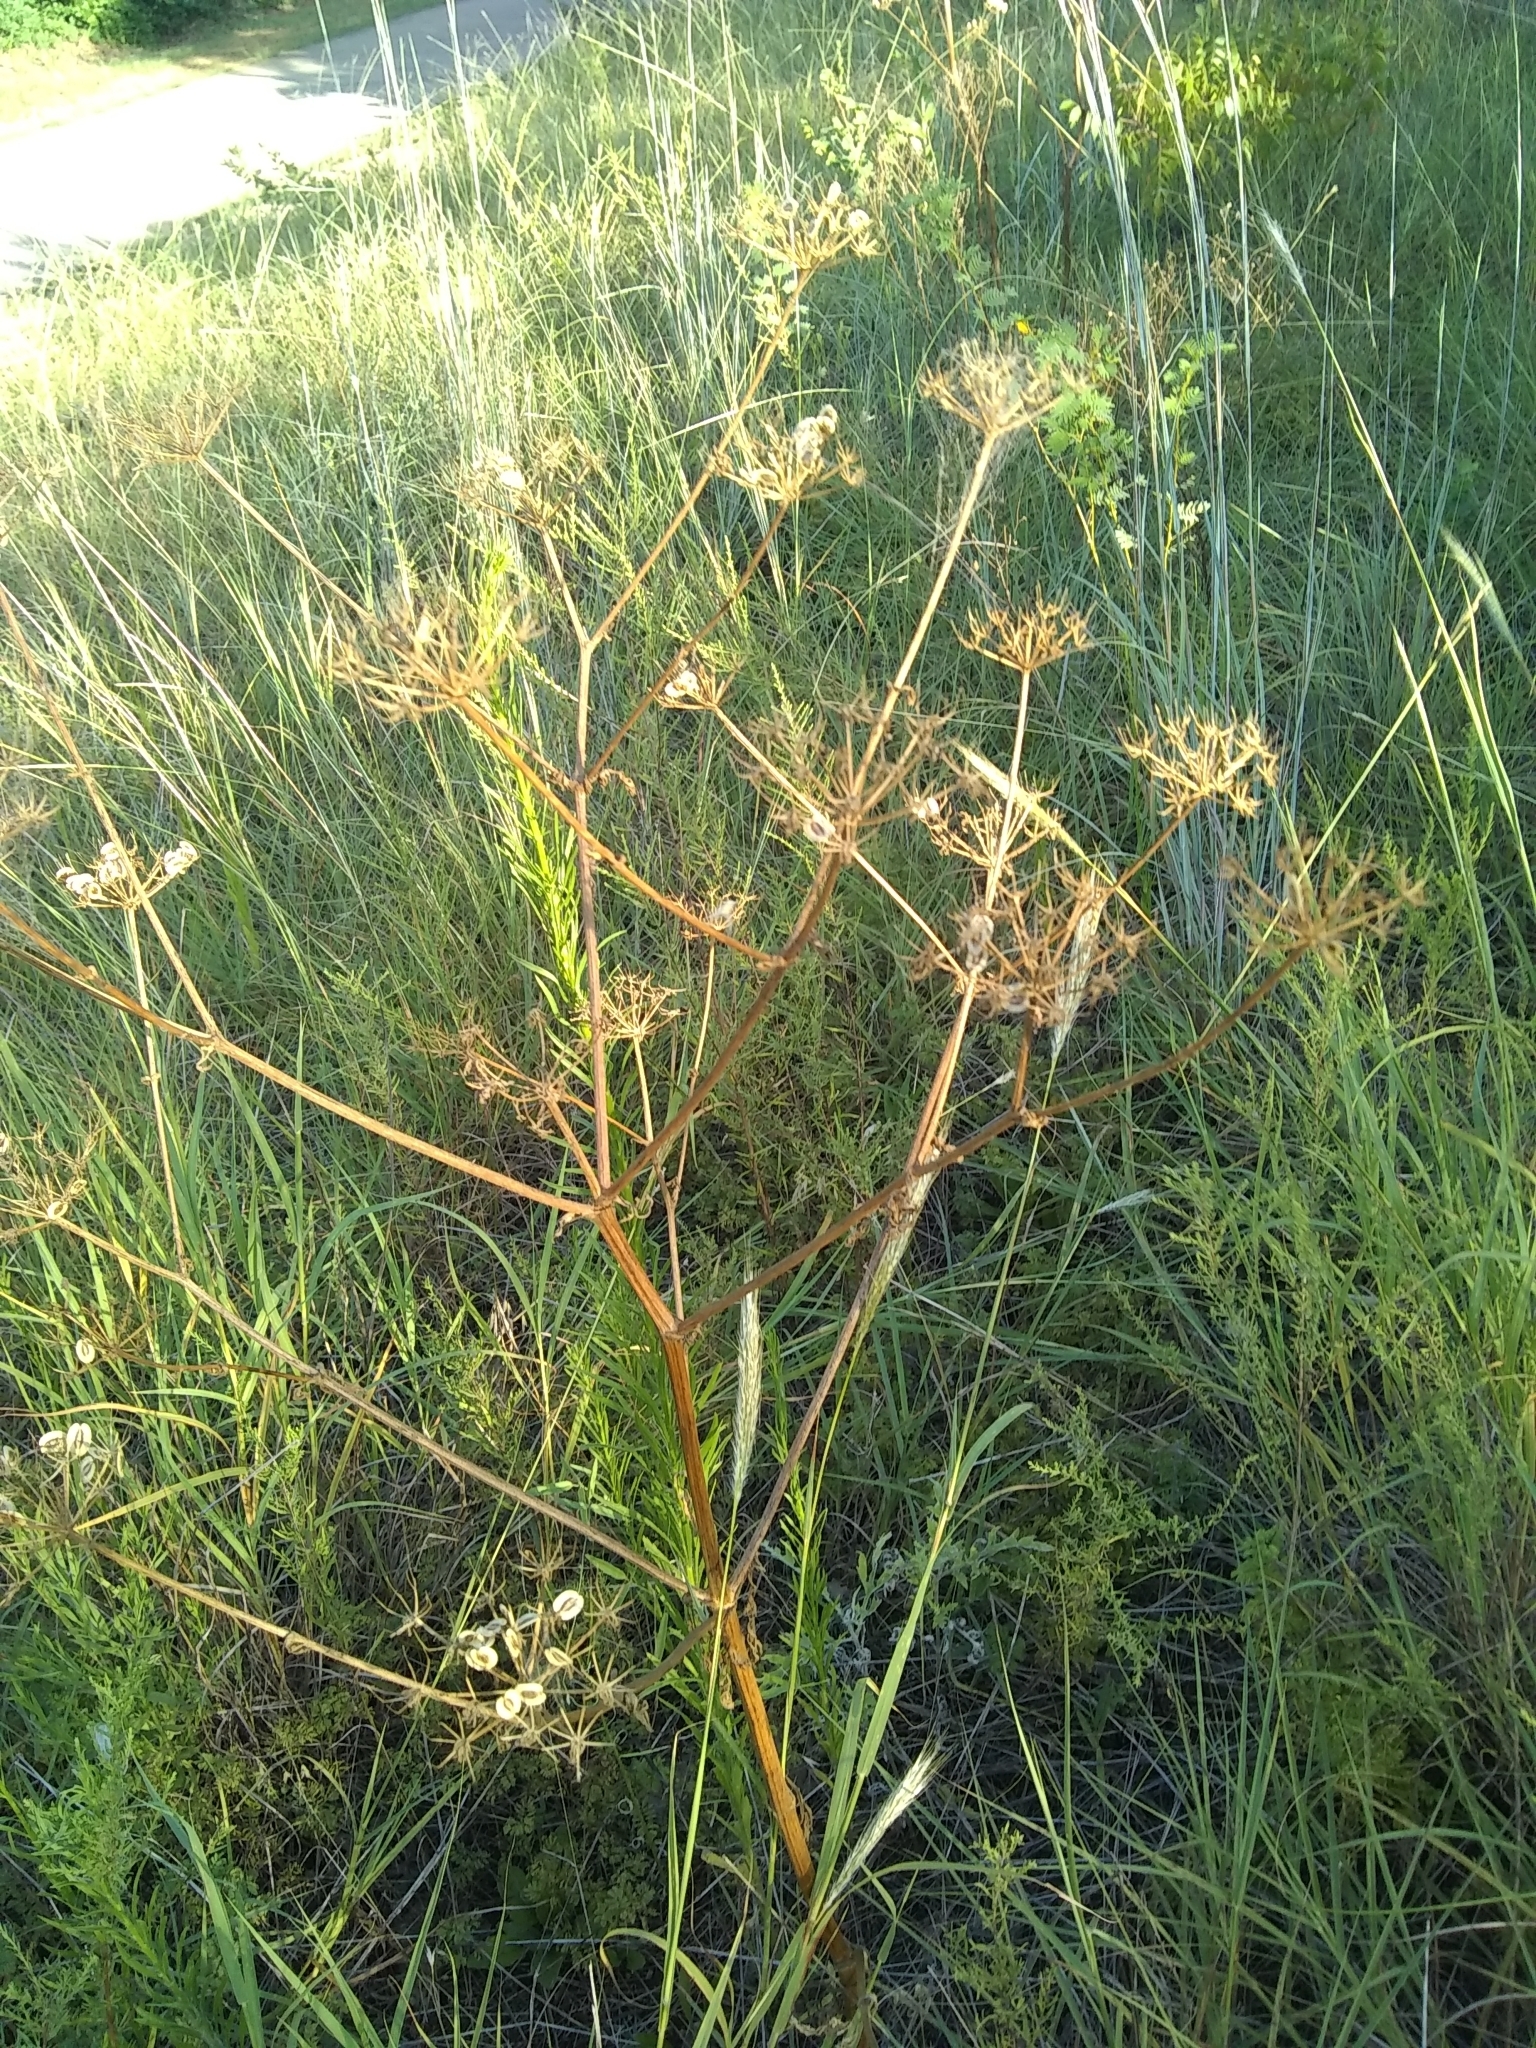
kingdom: Plantae
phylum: Tracheophyta
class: Magnoliopsida
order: Apiales
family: Apiaceae
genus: Polytaenia
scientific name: Polytaenia texana
